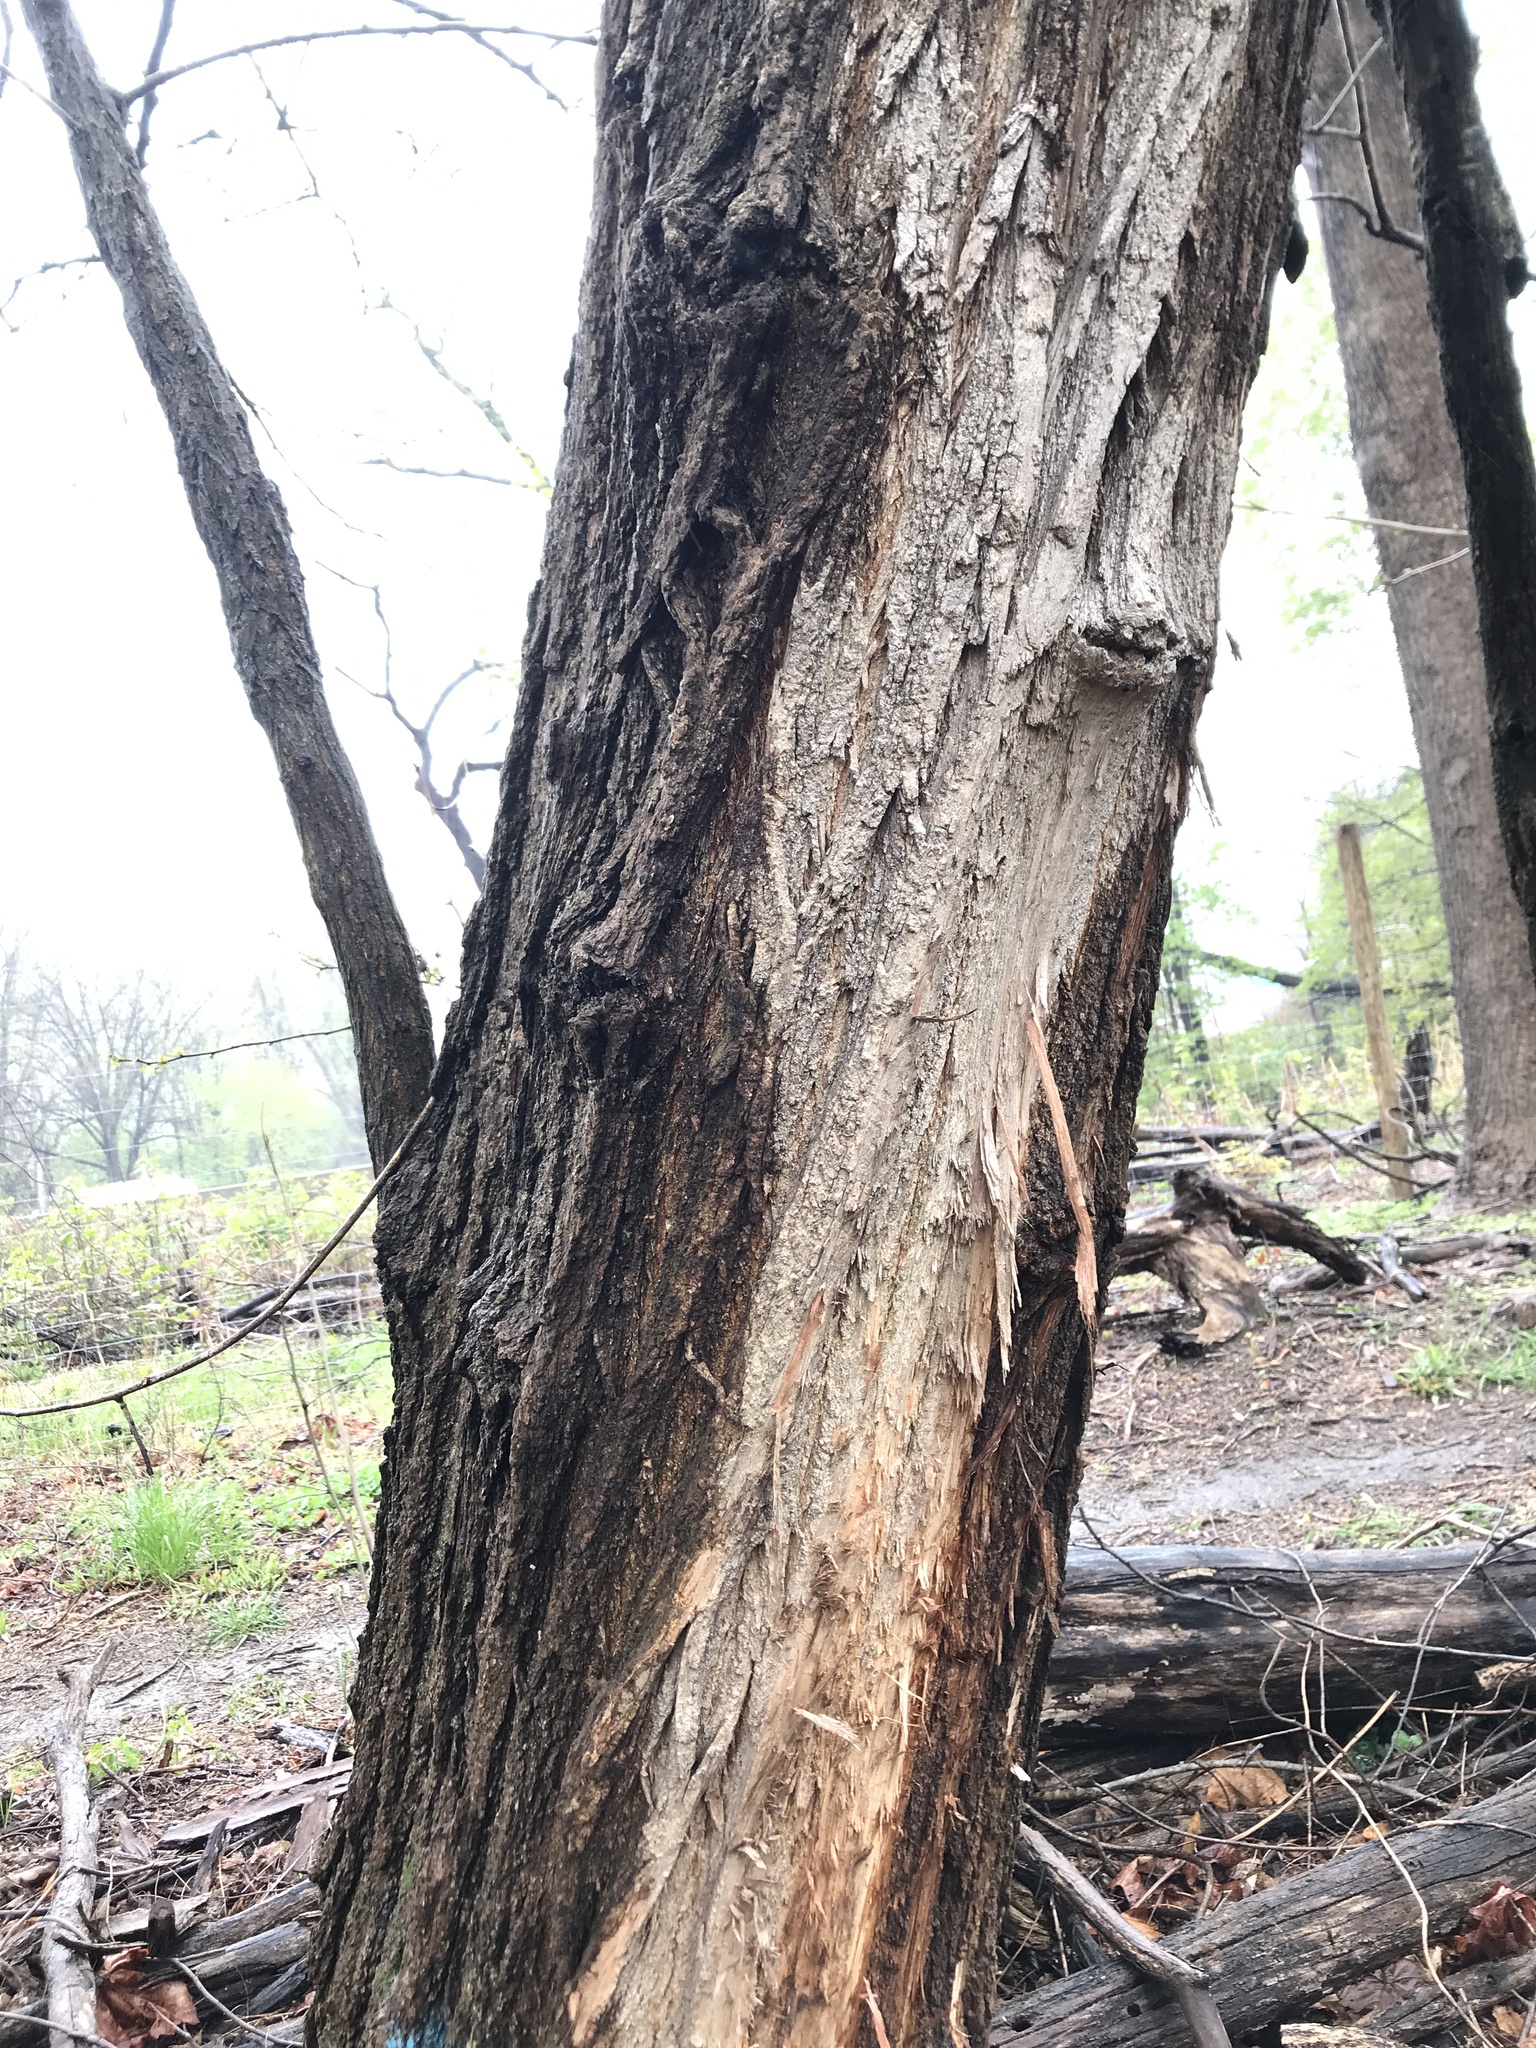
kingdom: Plantae
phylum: Tracheophyta
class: Magnoliopsida
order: Fabales
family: Fabaceae
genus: Robinia
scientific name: Robinia pseudoacacia
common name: Black locust
